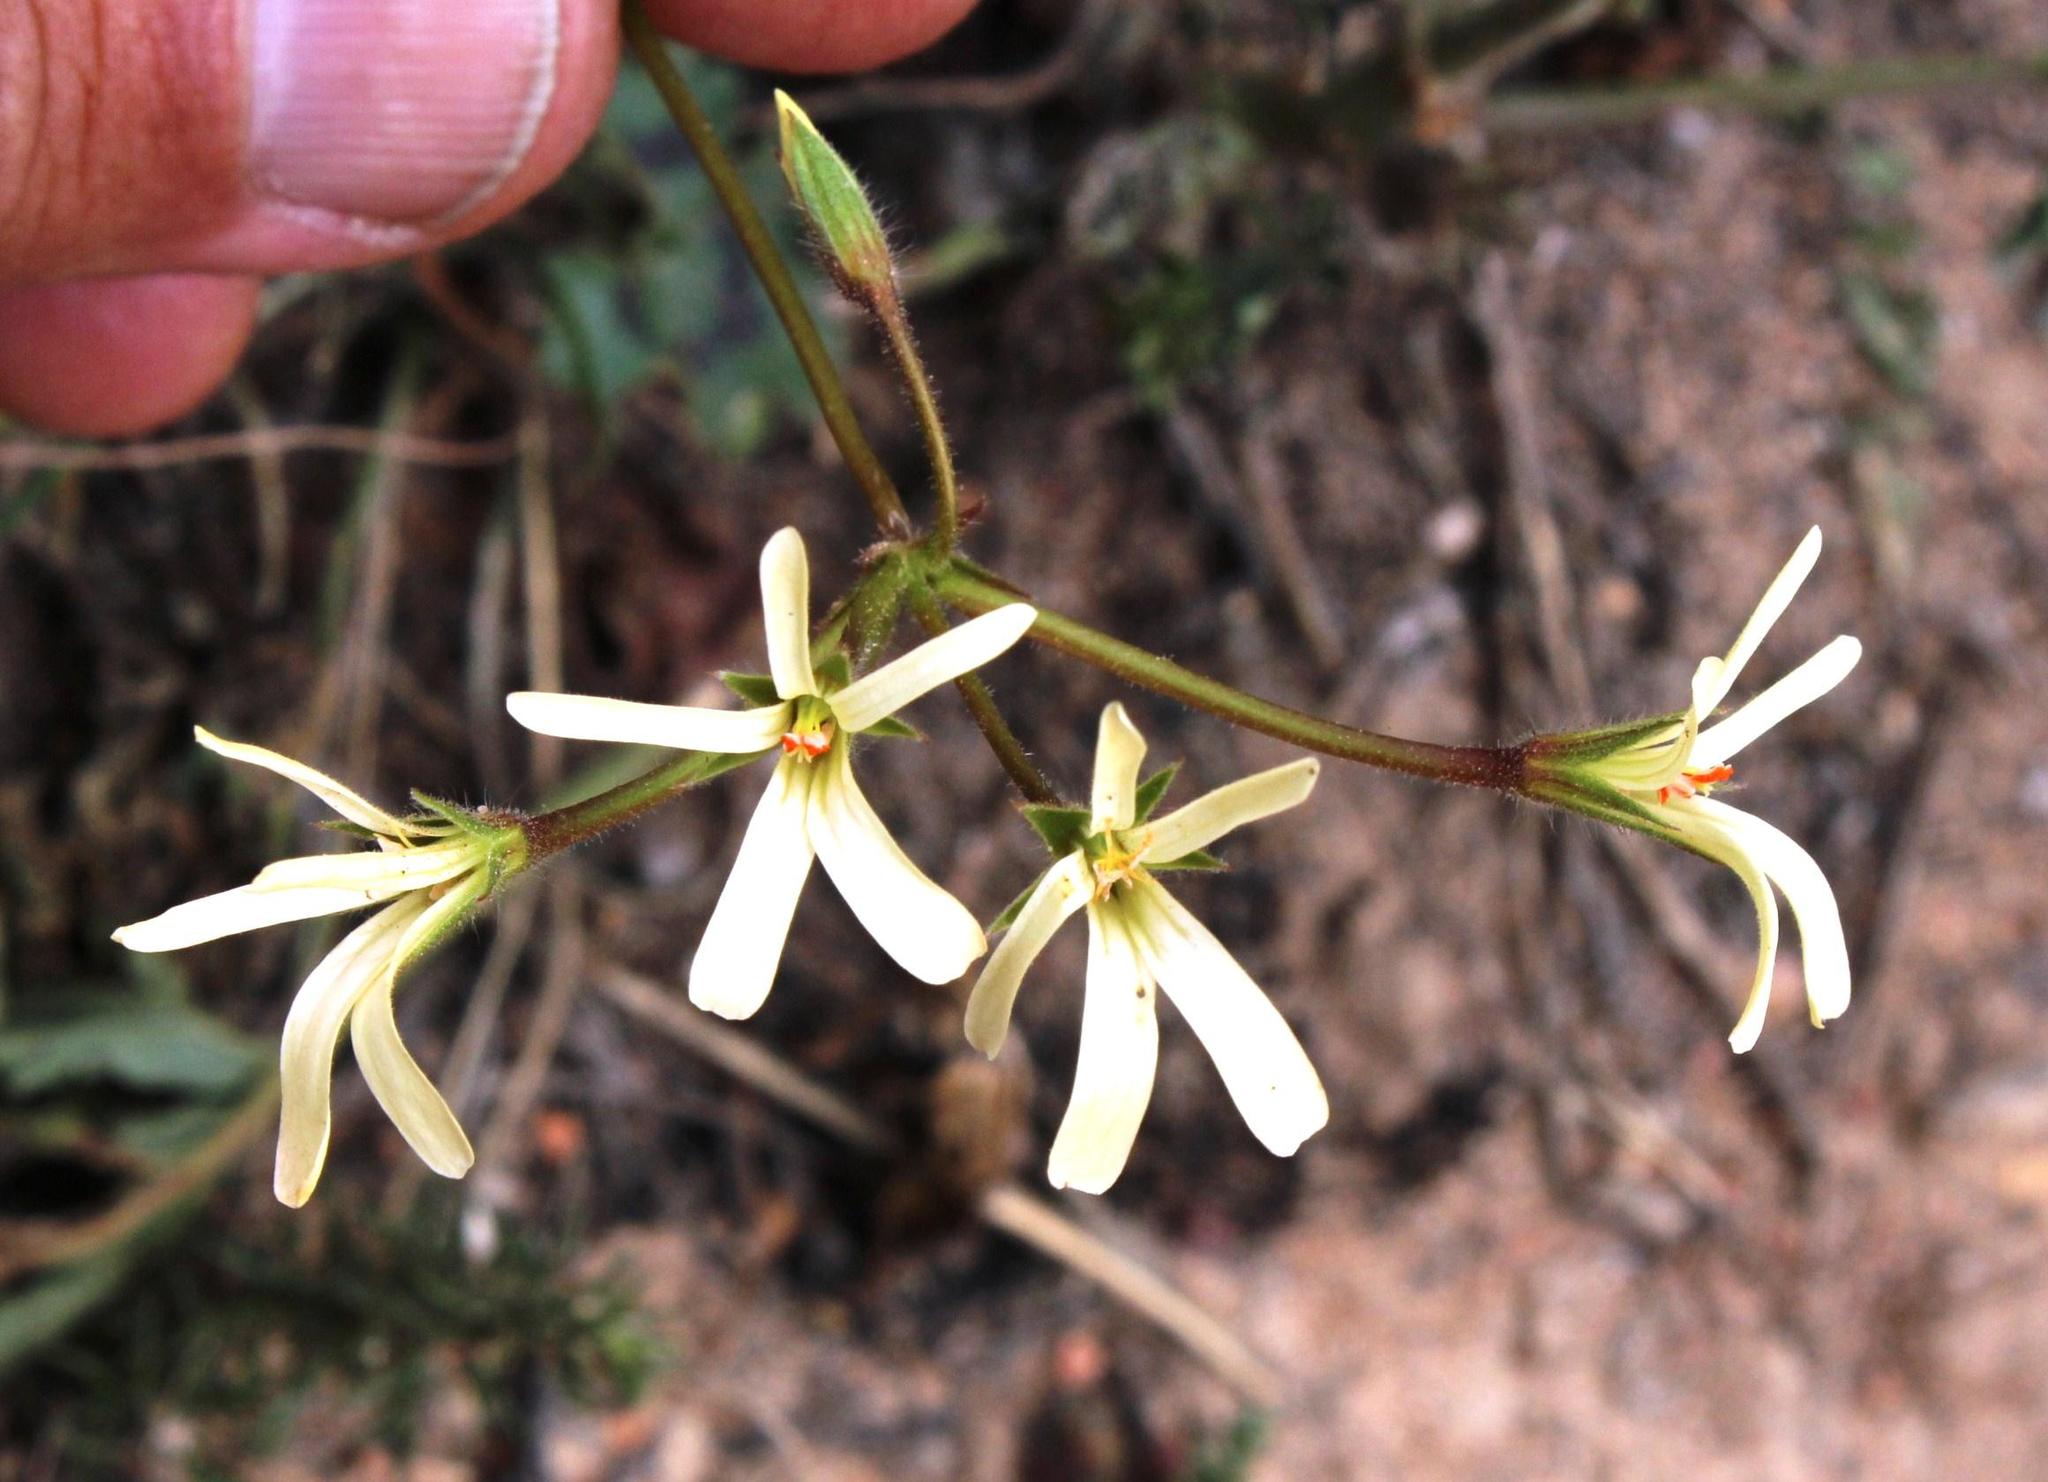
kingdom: Plantae
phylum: Tracheophyta
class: Magnoliopsida
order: Geraniales
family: Geraniaceae
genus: Pelargonium
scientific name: Pelargonium elongatum
